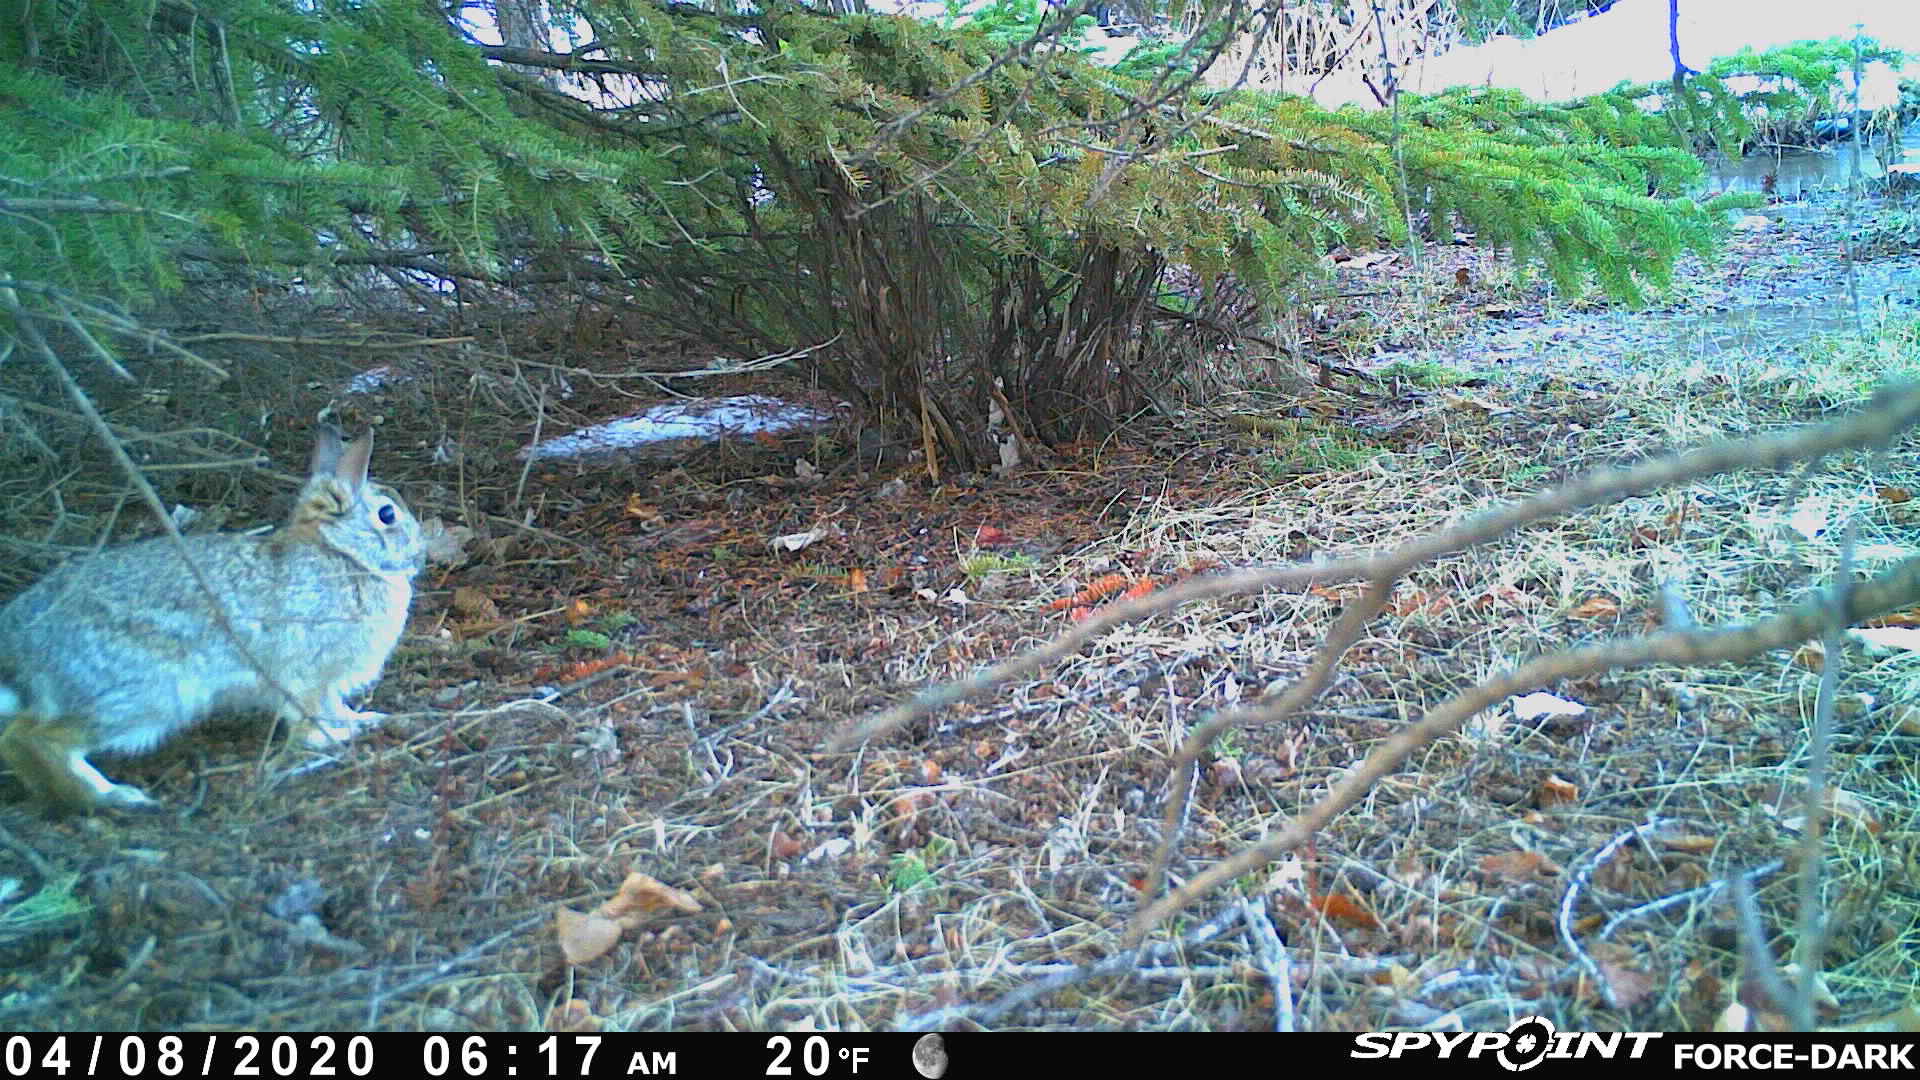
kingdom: Animalia
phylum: Chordata
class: Mammalia
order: Lagomorpha
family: Leporidae
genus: Sylvilagus
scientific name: Sylvilagus floridanus
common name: Eastern cottontail
